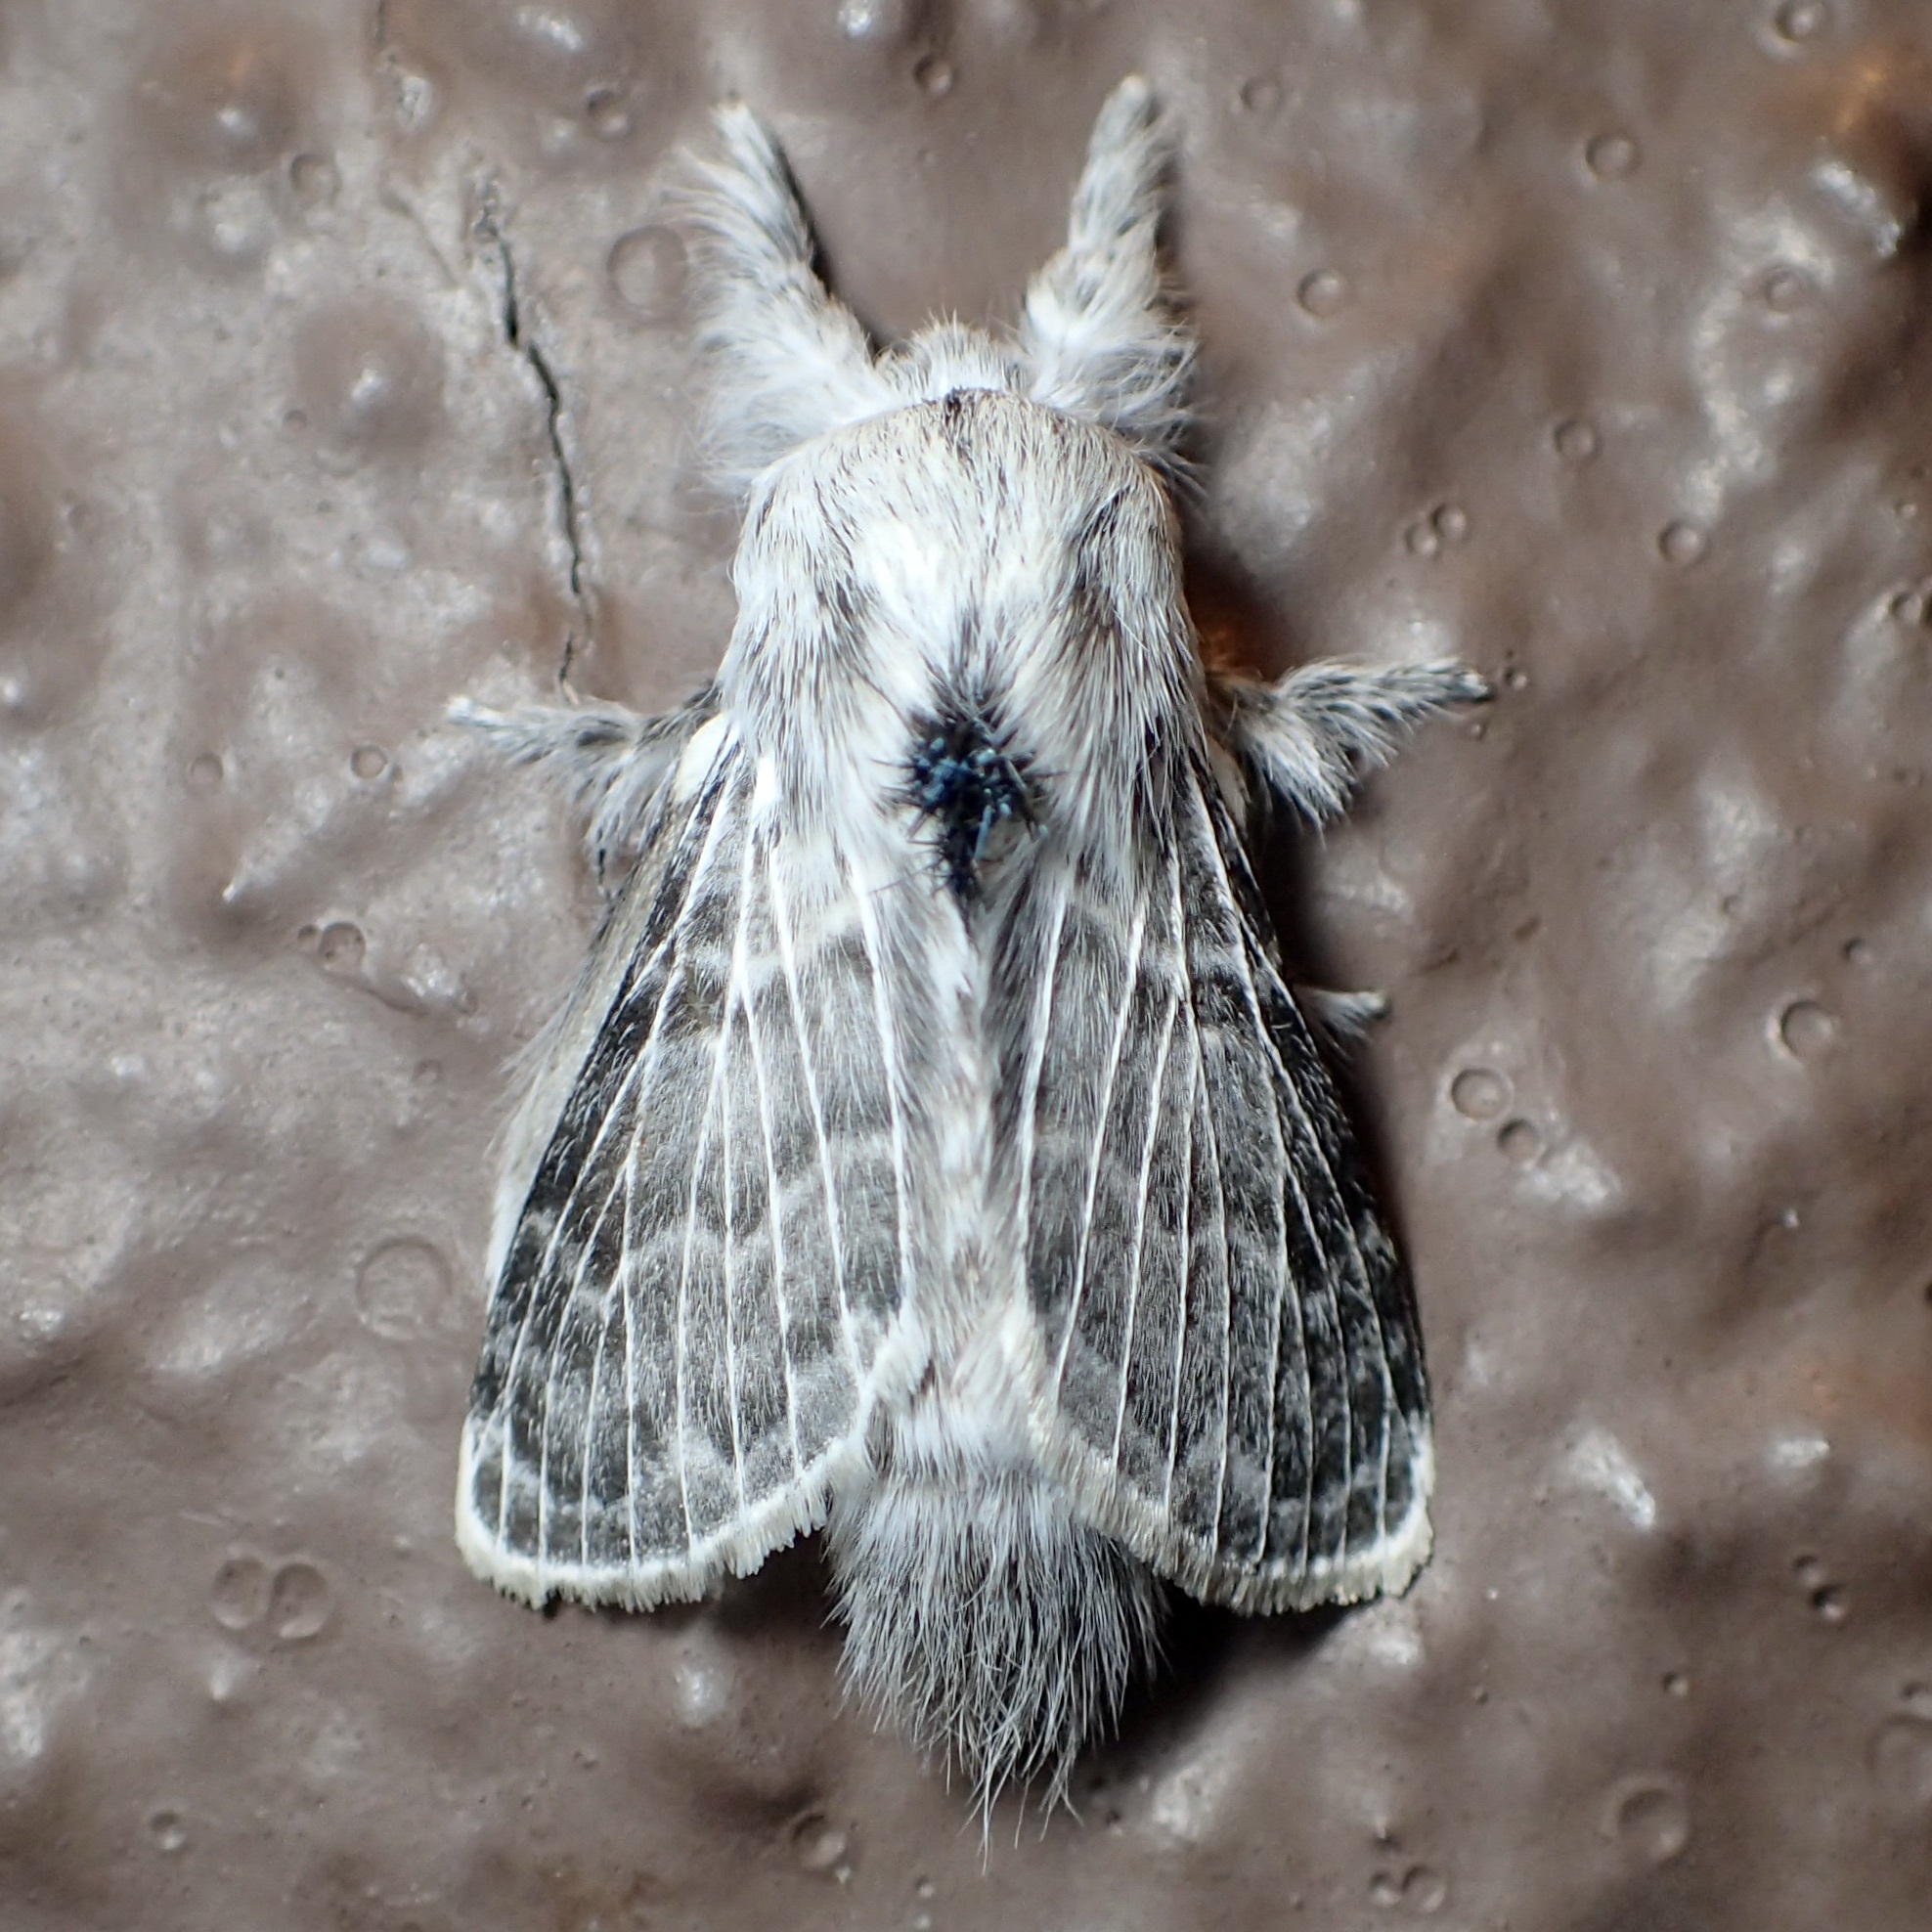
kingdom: Animalia
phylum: Arthropoda
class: Insecta
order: Lepidoptera
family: Lasiocampidae
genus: Apotolype
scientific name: Apotolype brevicrista
